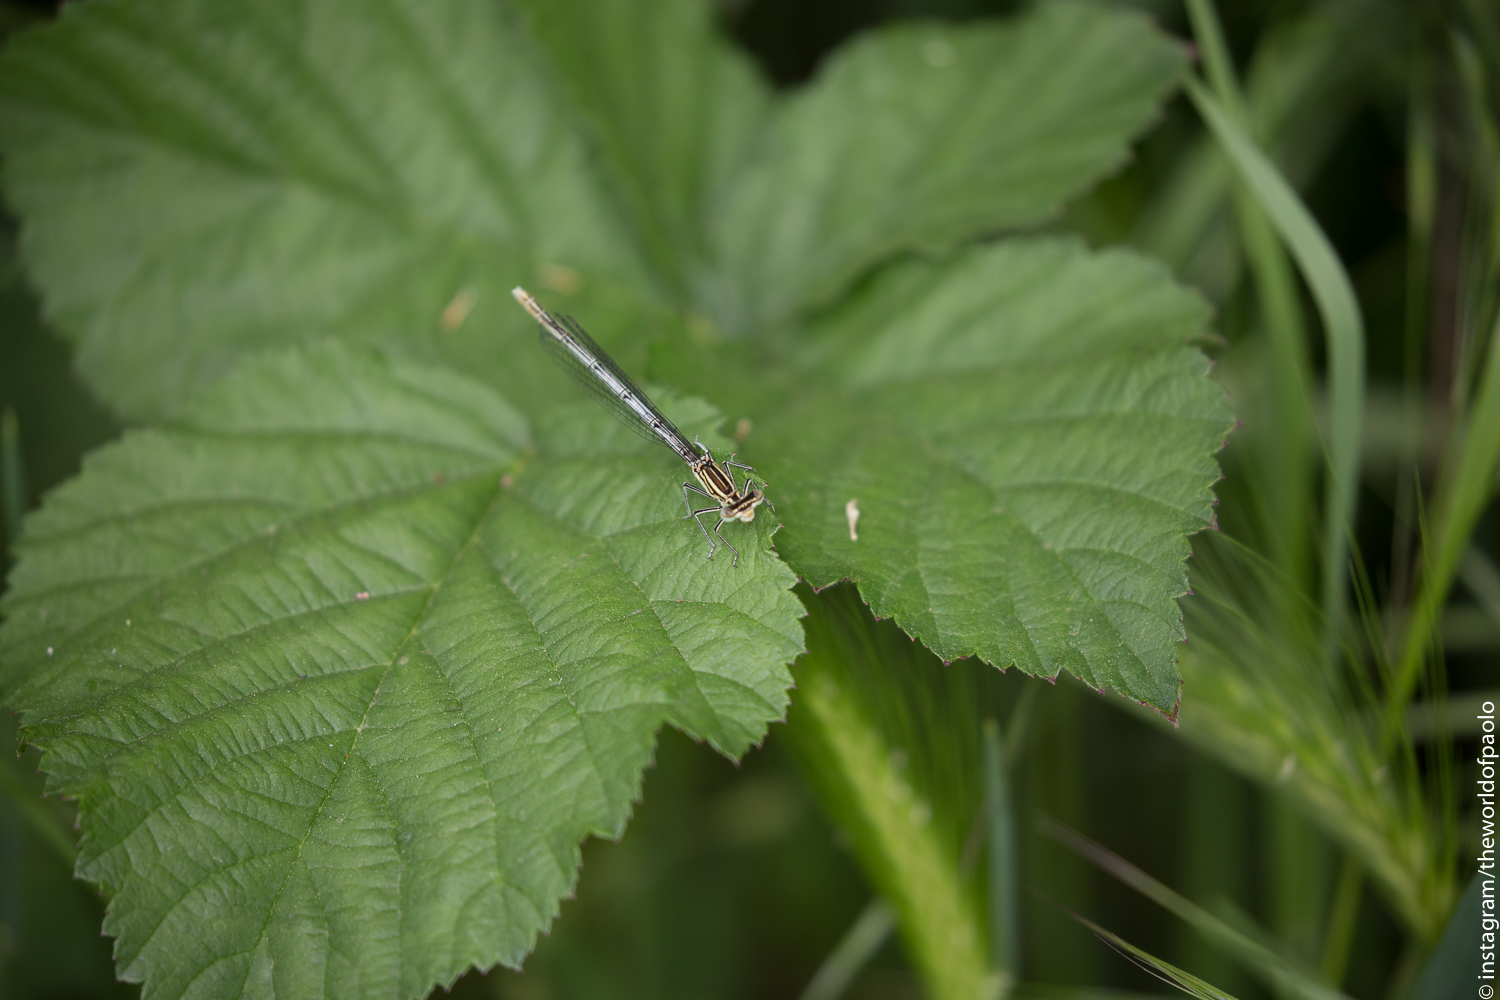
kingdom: Animalia
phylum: Arthropoda
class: Insecta
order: Odonata
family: Platycnemididae
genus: Platycnemis
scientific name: Platycnemis pennipes
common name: White-legged damselfly
